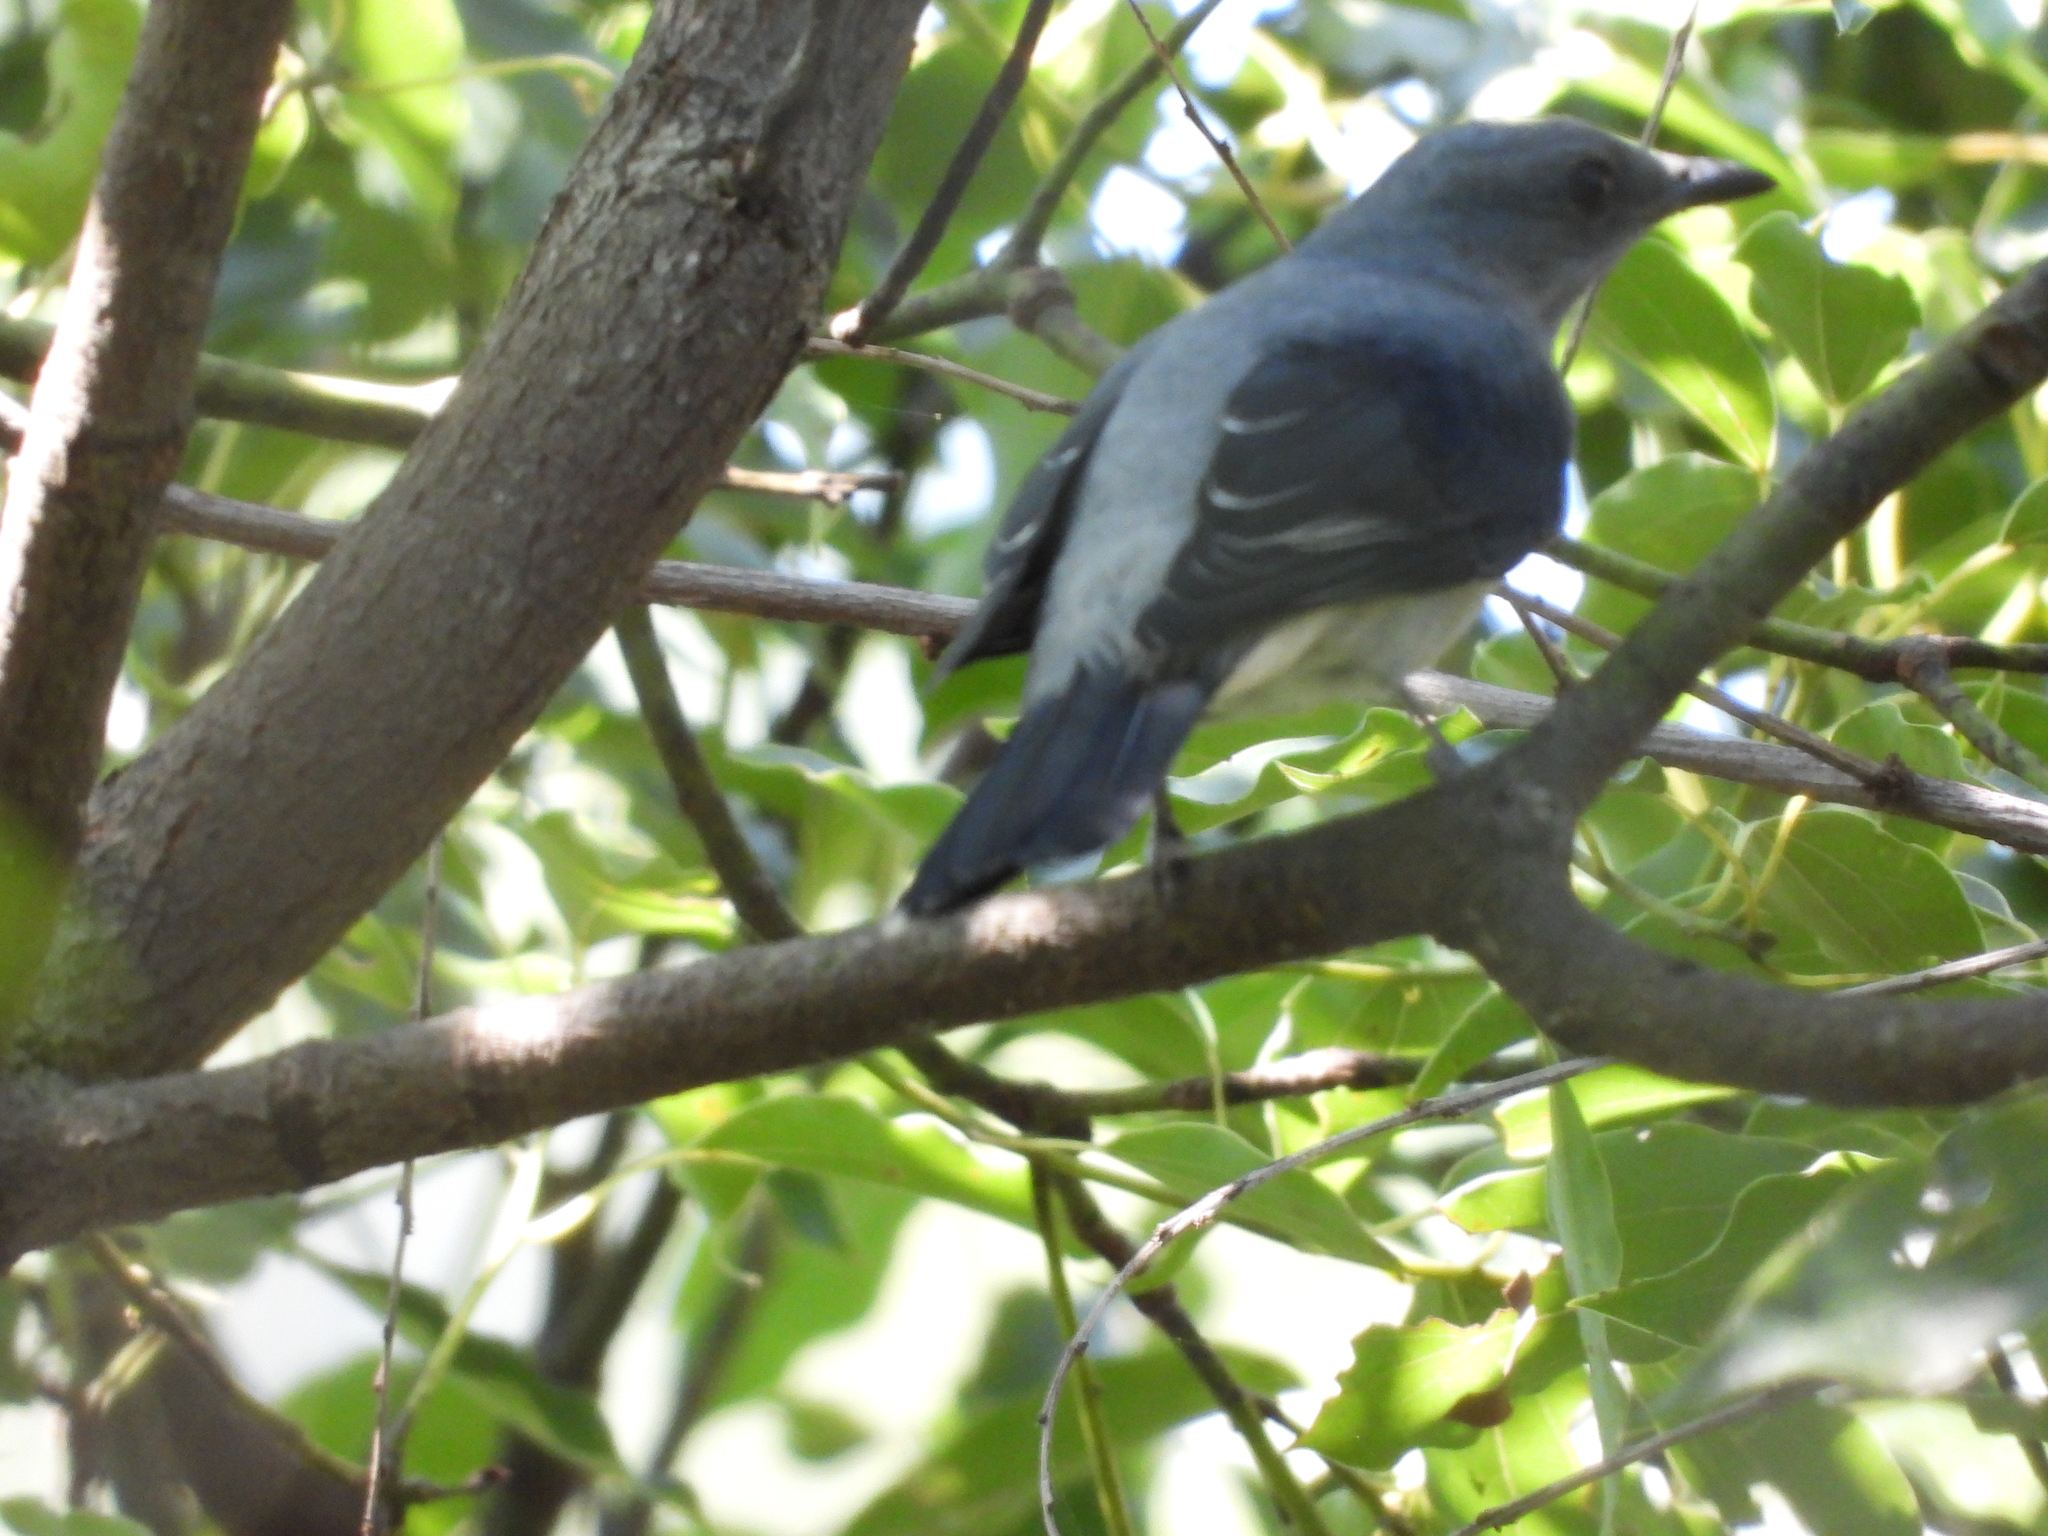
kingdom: Animalia
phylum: Chordata
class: Aves
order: Passeriformes
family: Campephagidae
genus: Coracina
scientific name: Coracina melaschistos
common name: Black-winged cuckooshrike
